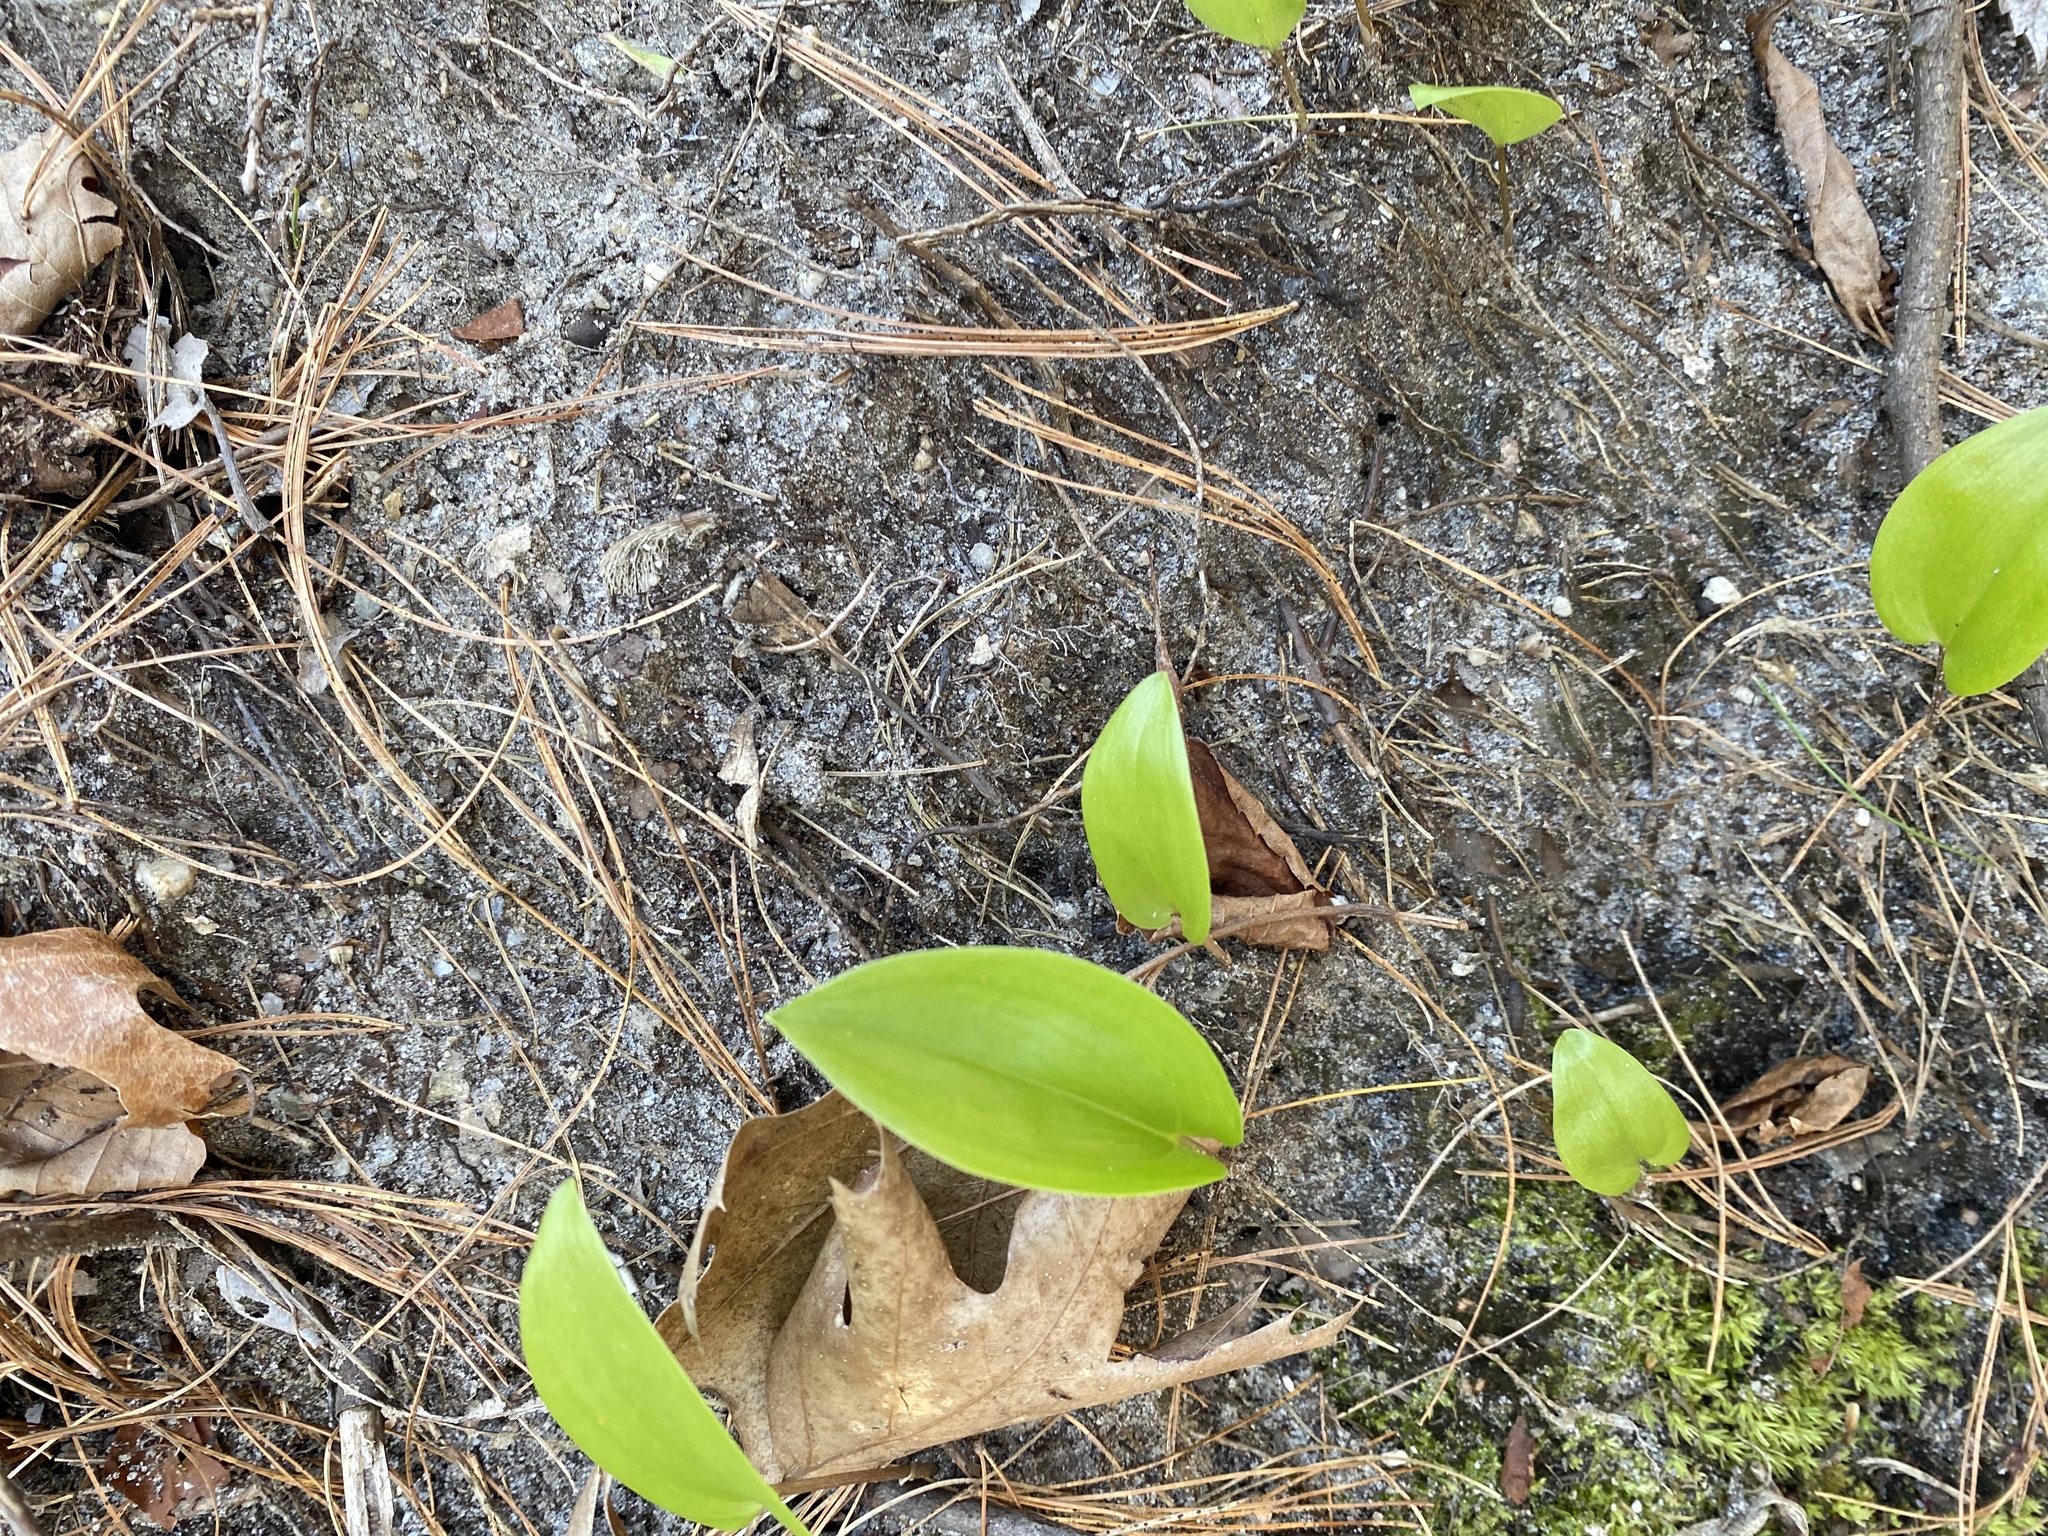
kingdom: Plantae
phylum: Tracheophyta
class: Liliopsida
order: Asparagales
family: Asparagaceae
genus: Maianthemum
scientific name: Maianthemum canadense
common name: False lily-of-the-valley
